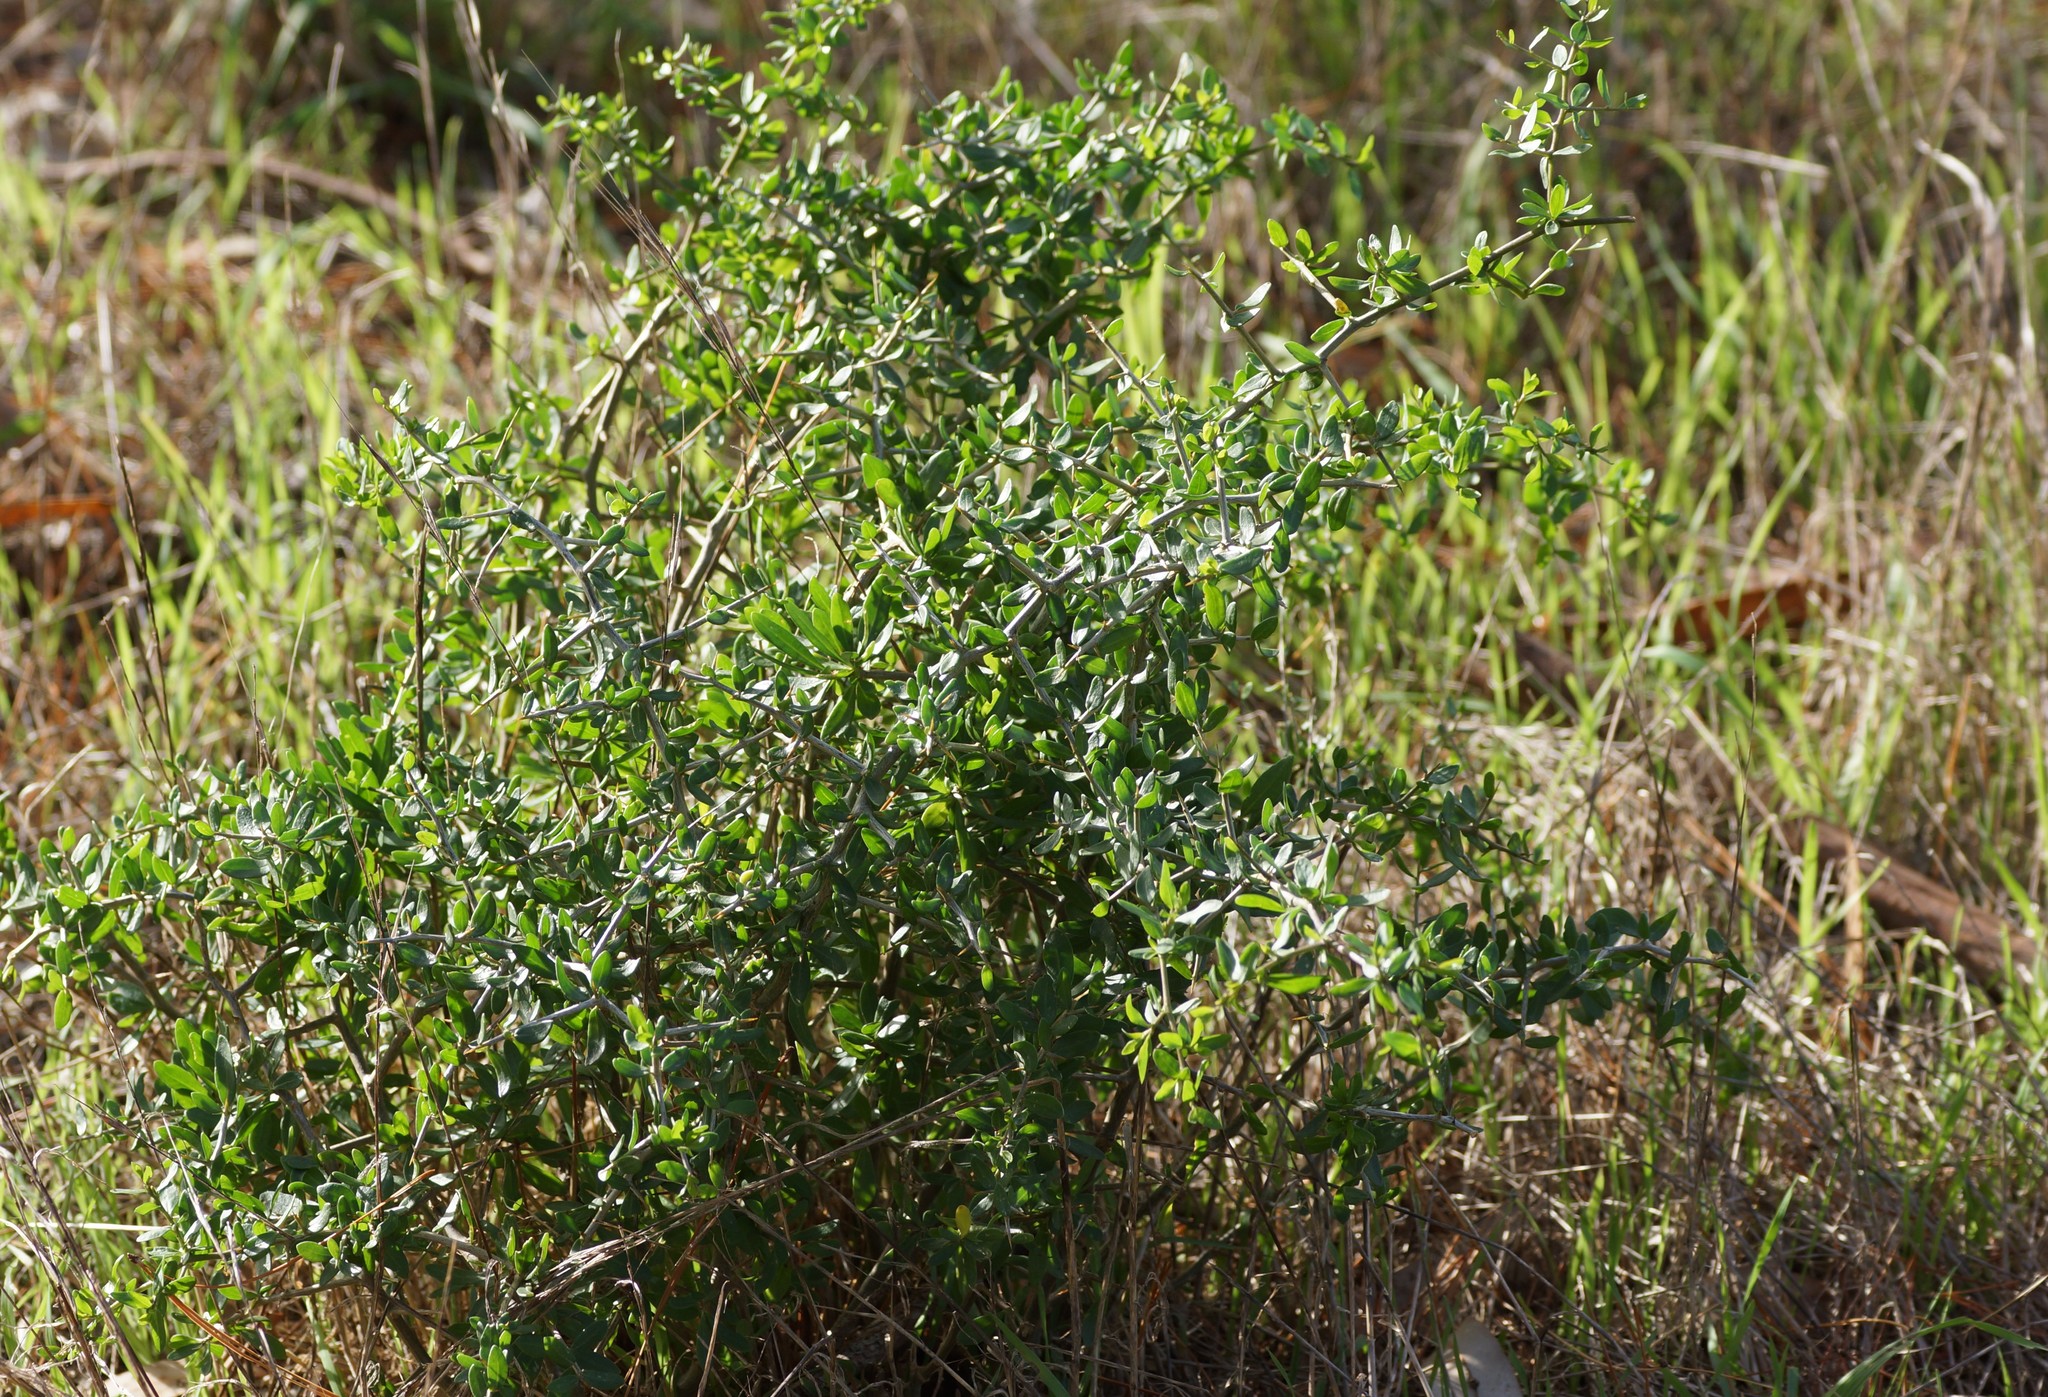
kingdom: Plantae
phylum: Tracheophyta
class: Magnoliopsida
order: Solanales
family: Solanaceae
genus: Lycium
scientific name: Lycium ferocissimum
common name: African boxthorn
